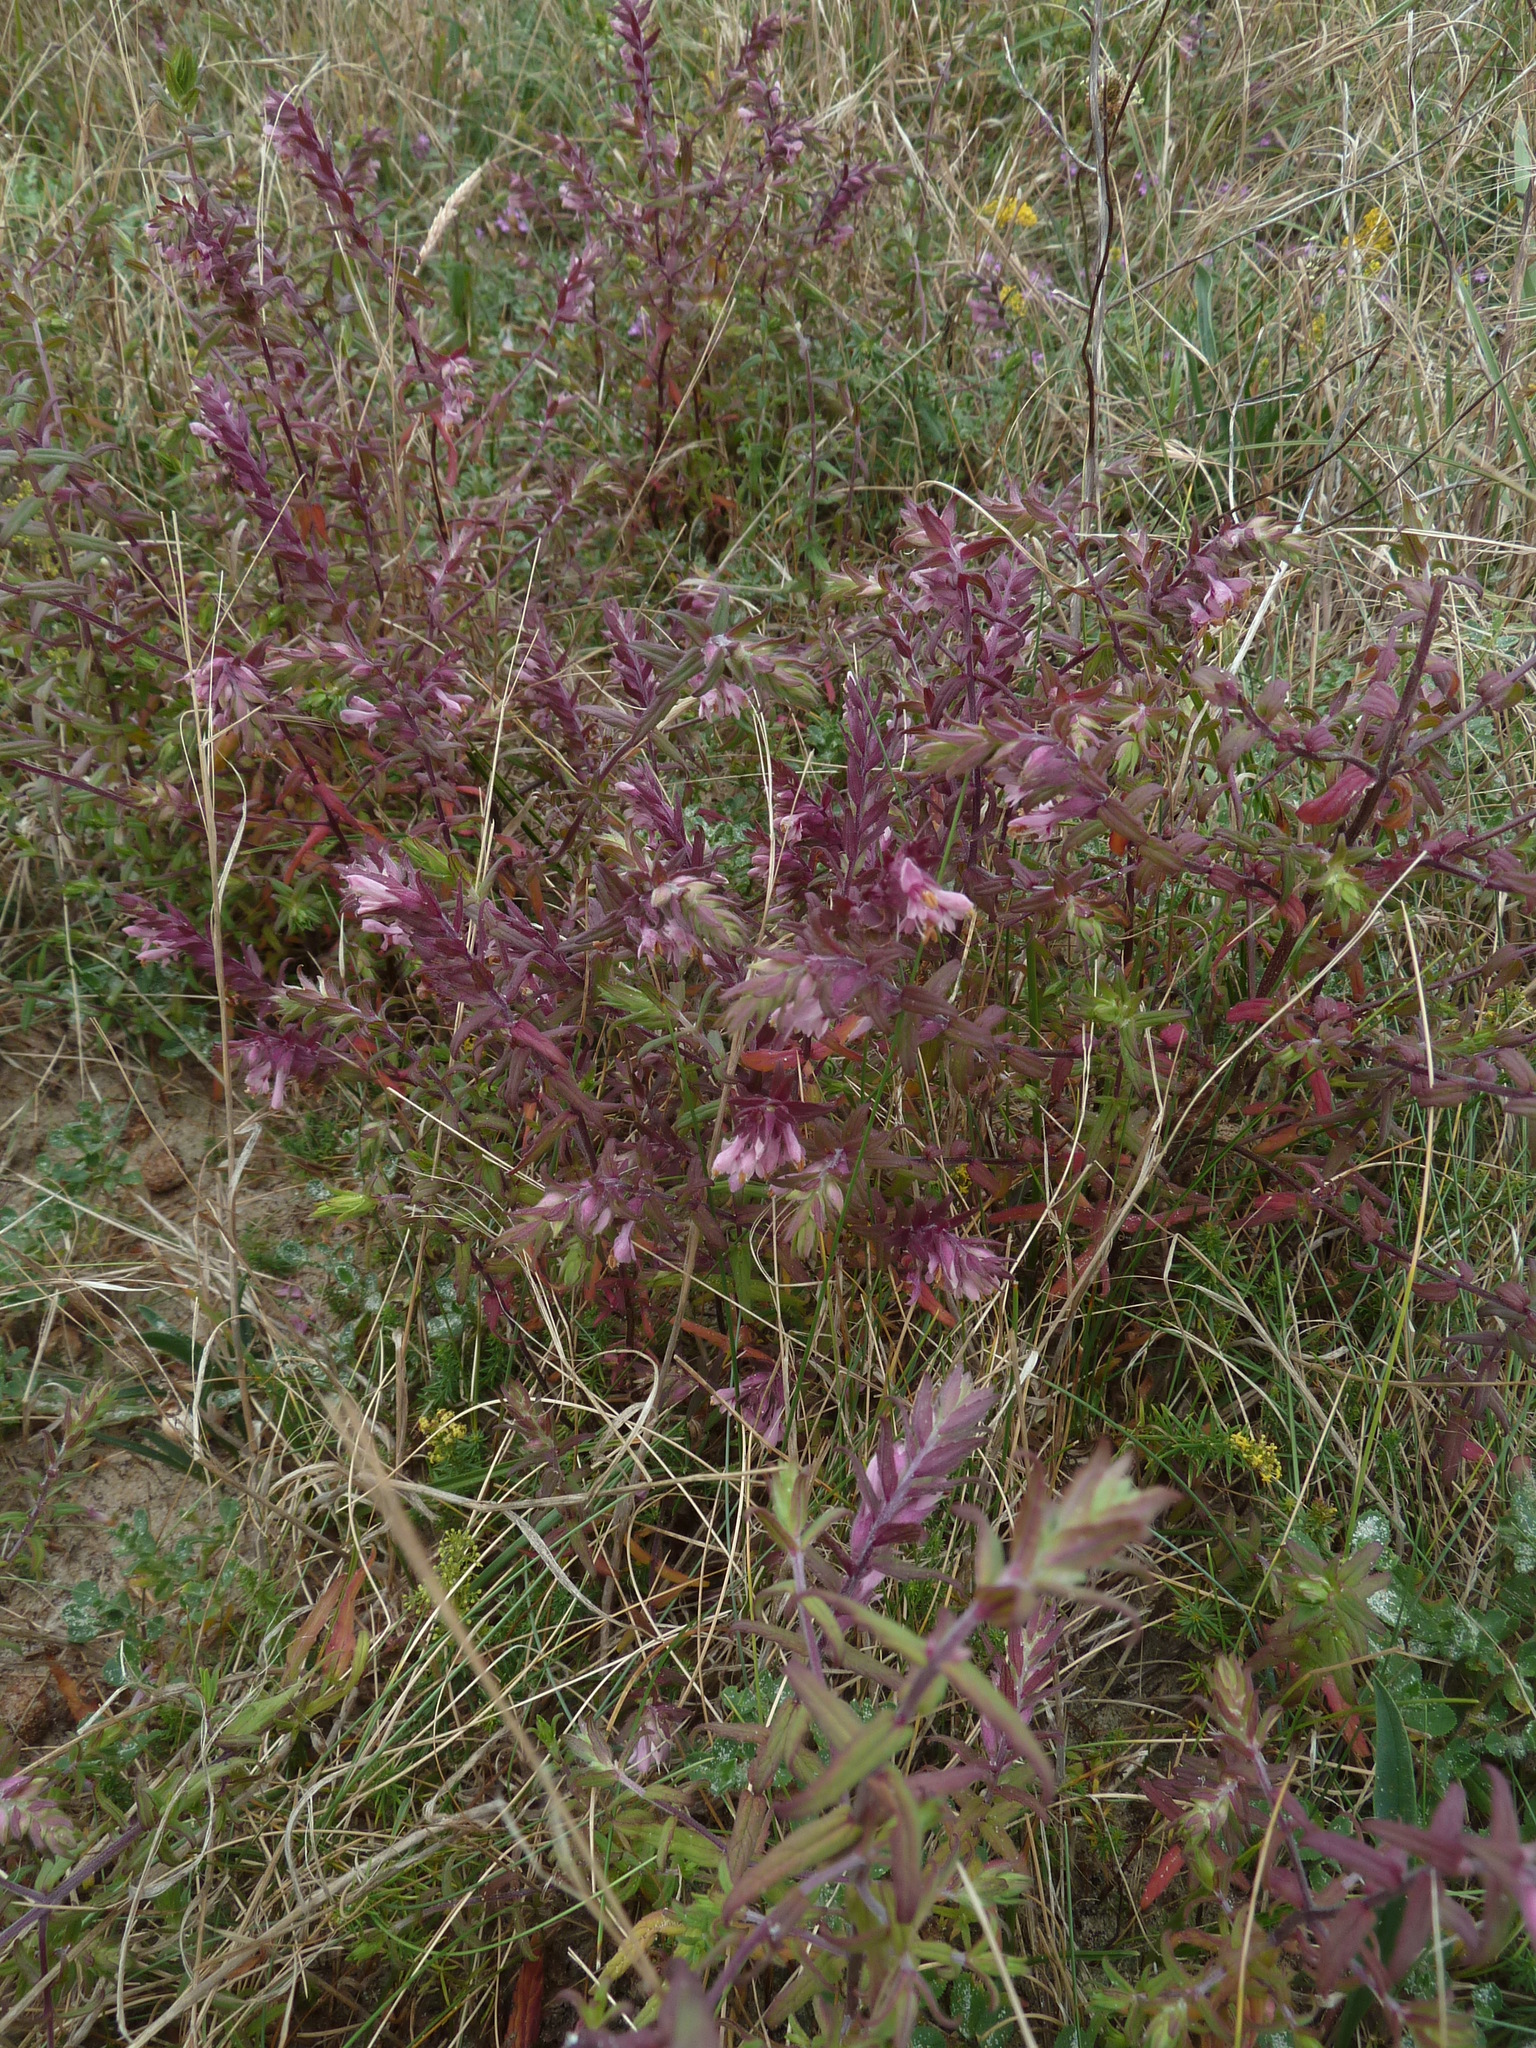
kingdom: Plantae
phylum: Tracheophyta
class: Magnoliopsida
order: Lamiales
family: Orobanchaceae
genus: Odontites
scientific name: Odontites vernus
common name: Red bartsia
